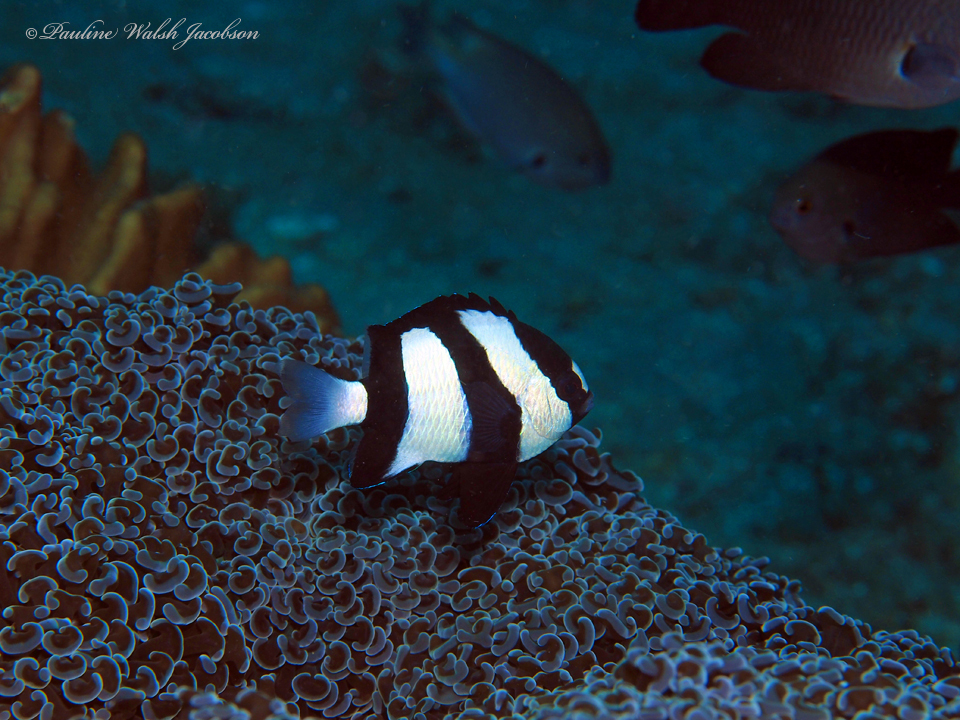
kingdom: Animalia
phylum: Chordata
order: Perciformes
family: Pomacentridae
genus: Dascyllus
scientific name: Dascyllus aruanus
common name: Humbug dascyllus
